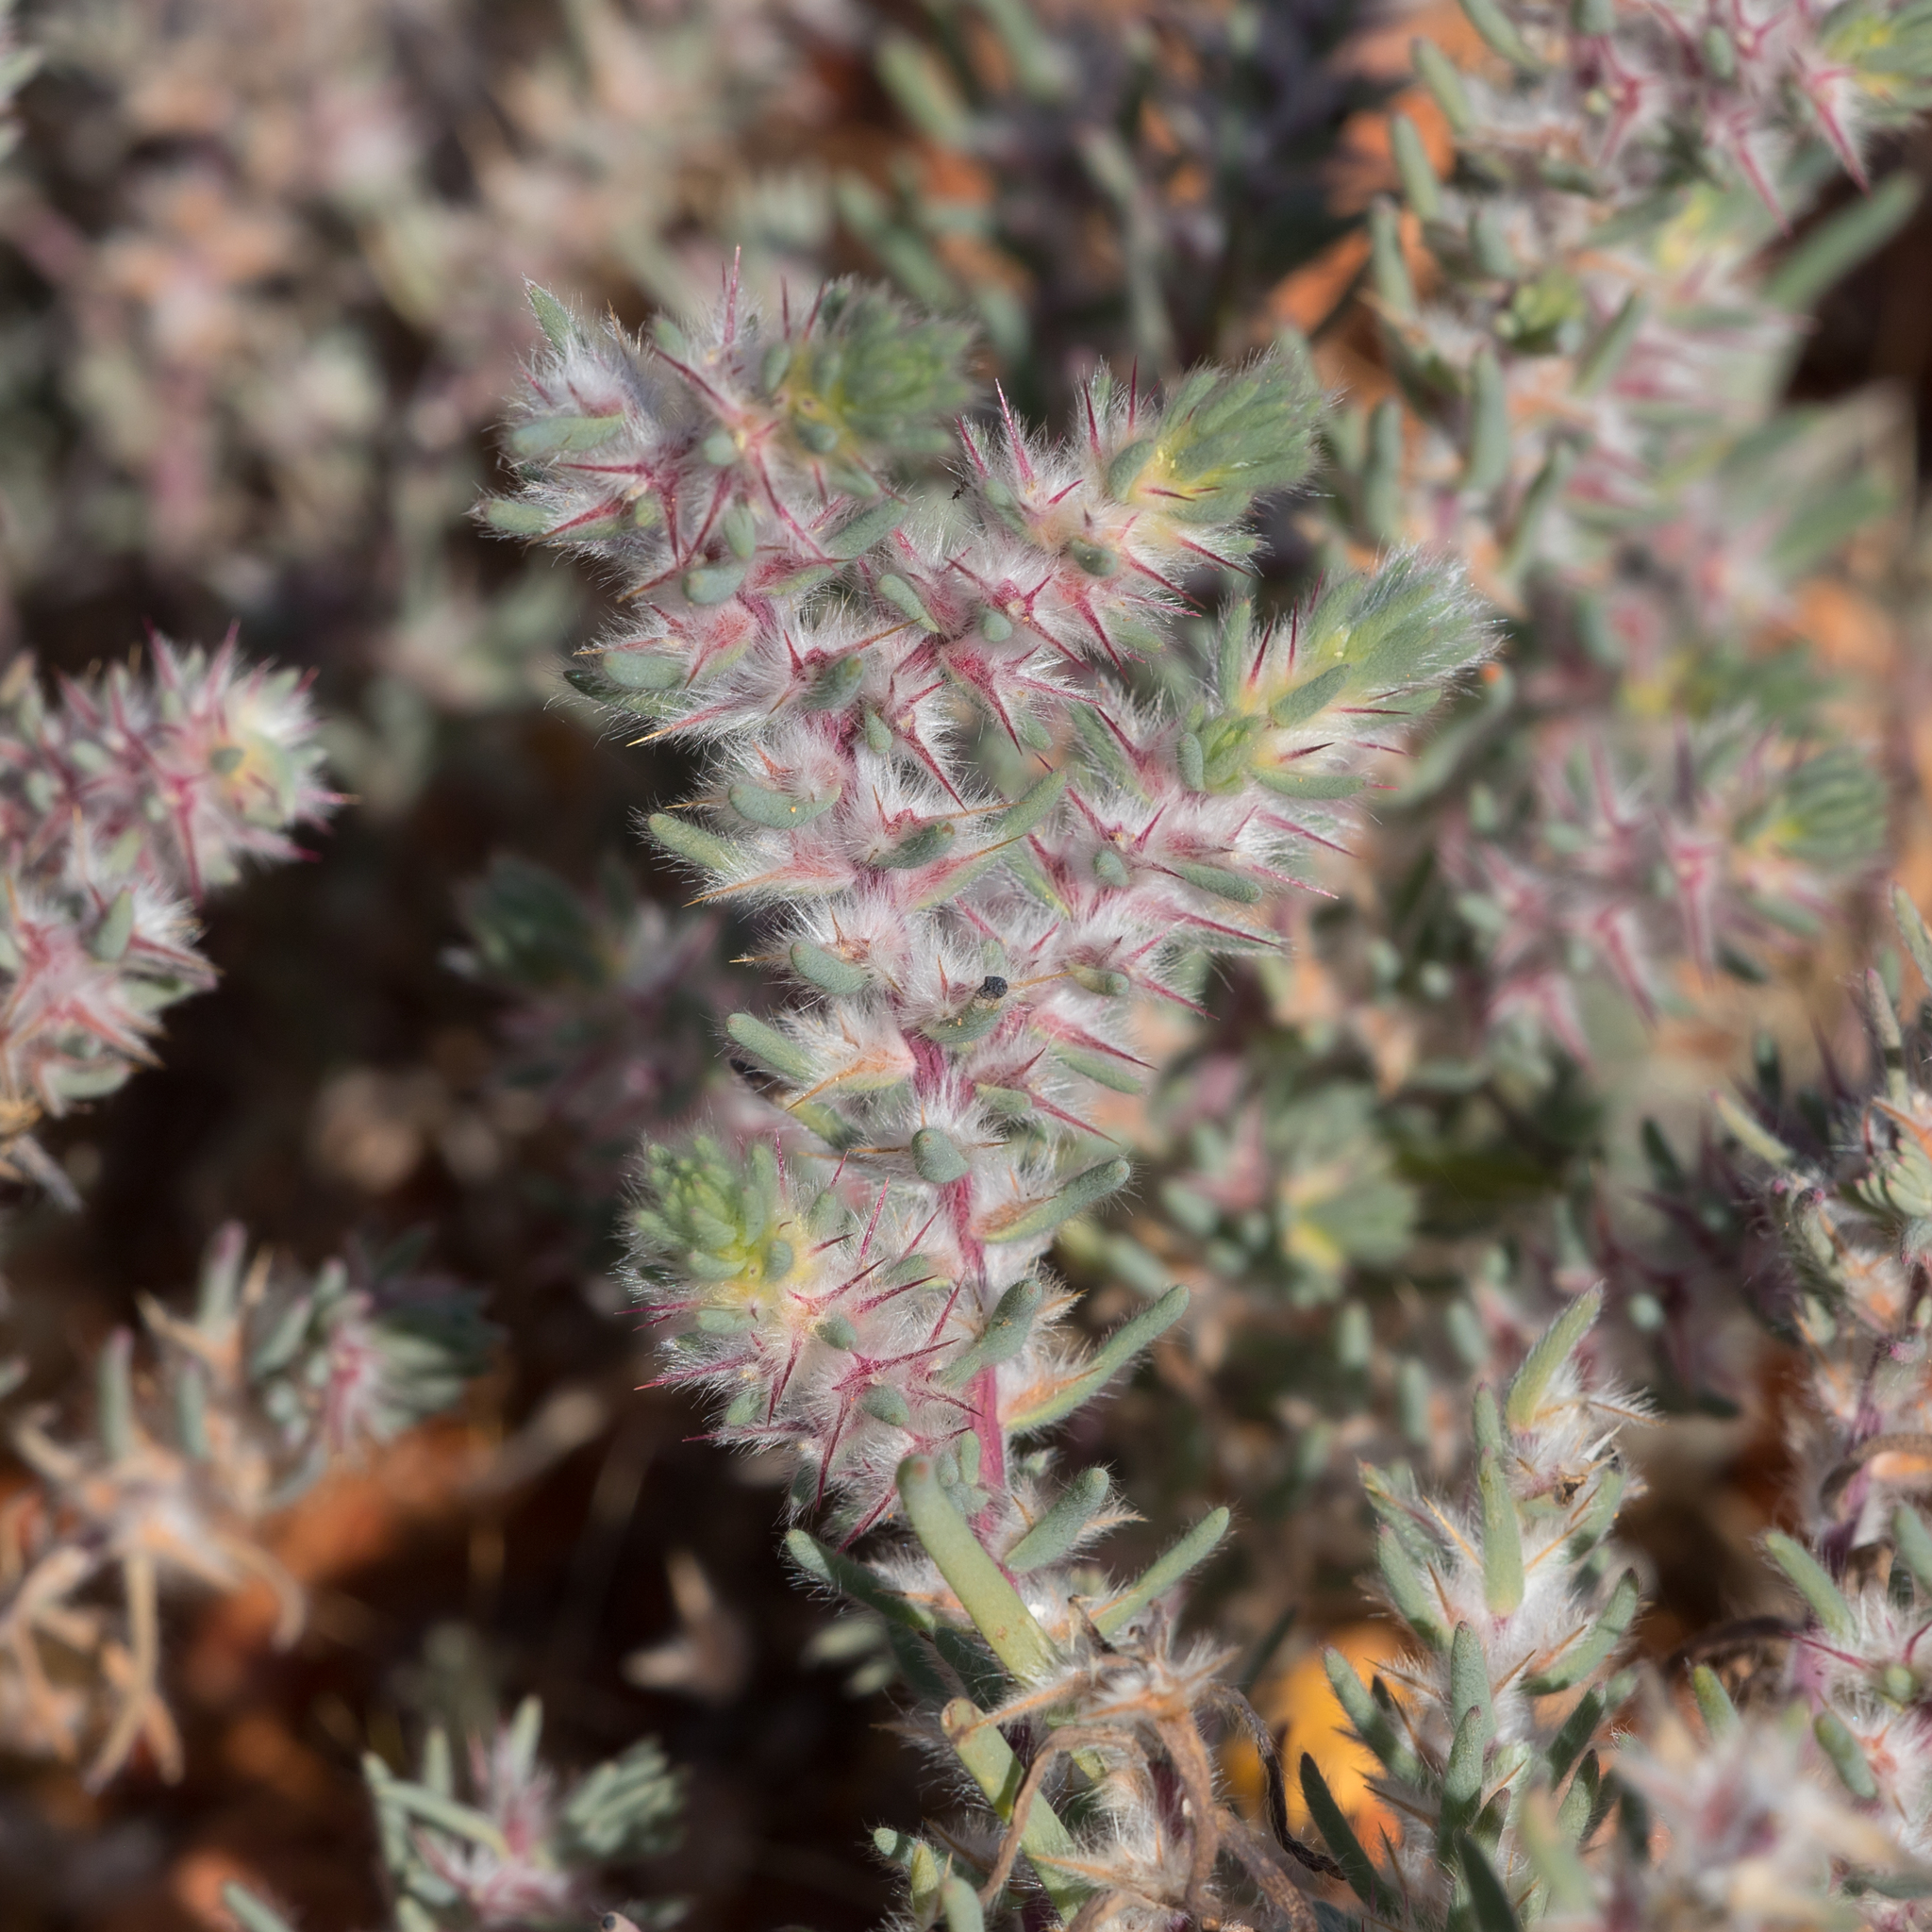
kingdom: Plantae
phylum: Tracheophyta
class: Magnoliopsida
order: Caryophyllales
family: Amaranthaceae
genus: Sclerolaena
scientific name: Sclerolaena lanicuspis
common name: Copperbur
